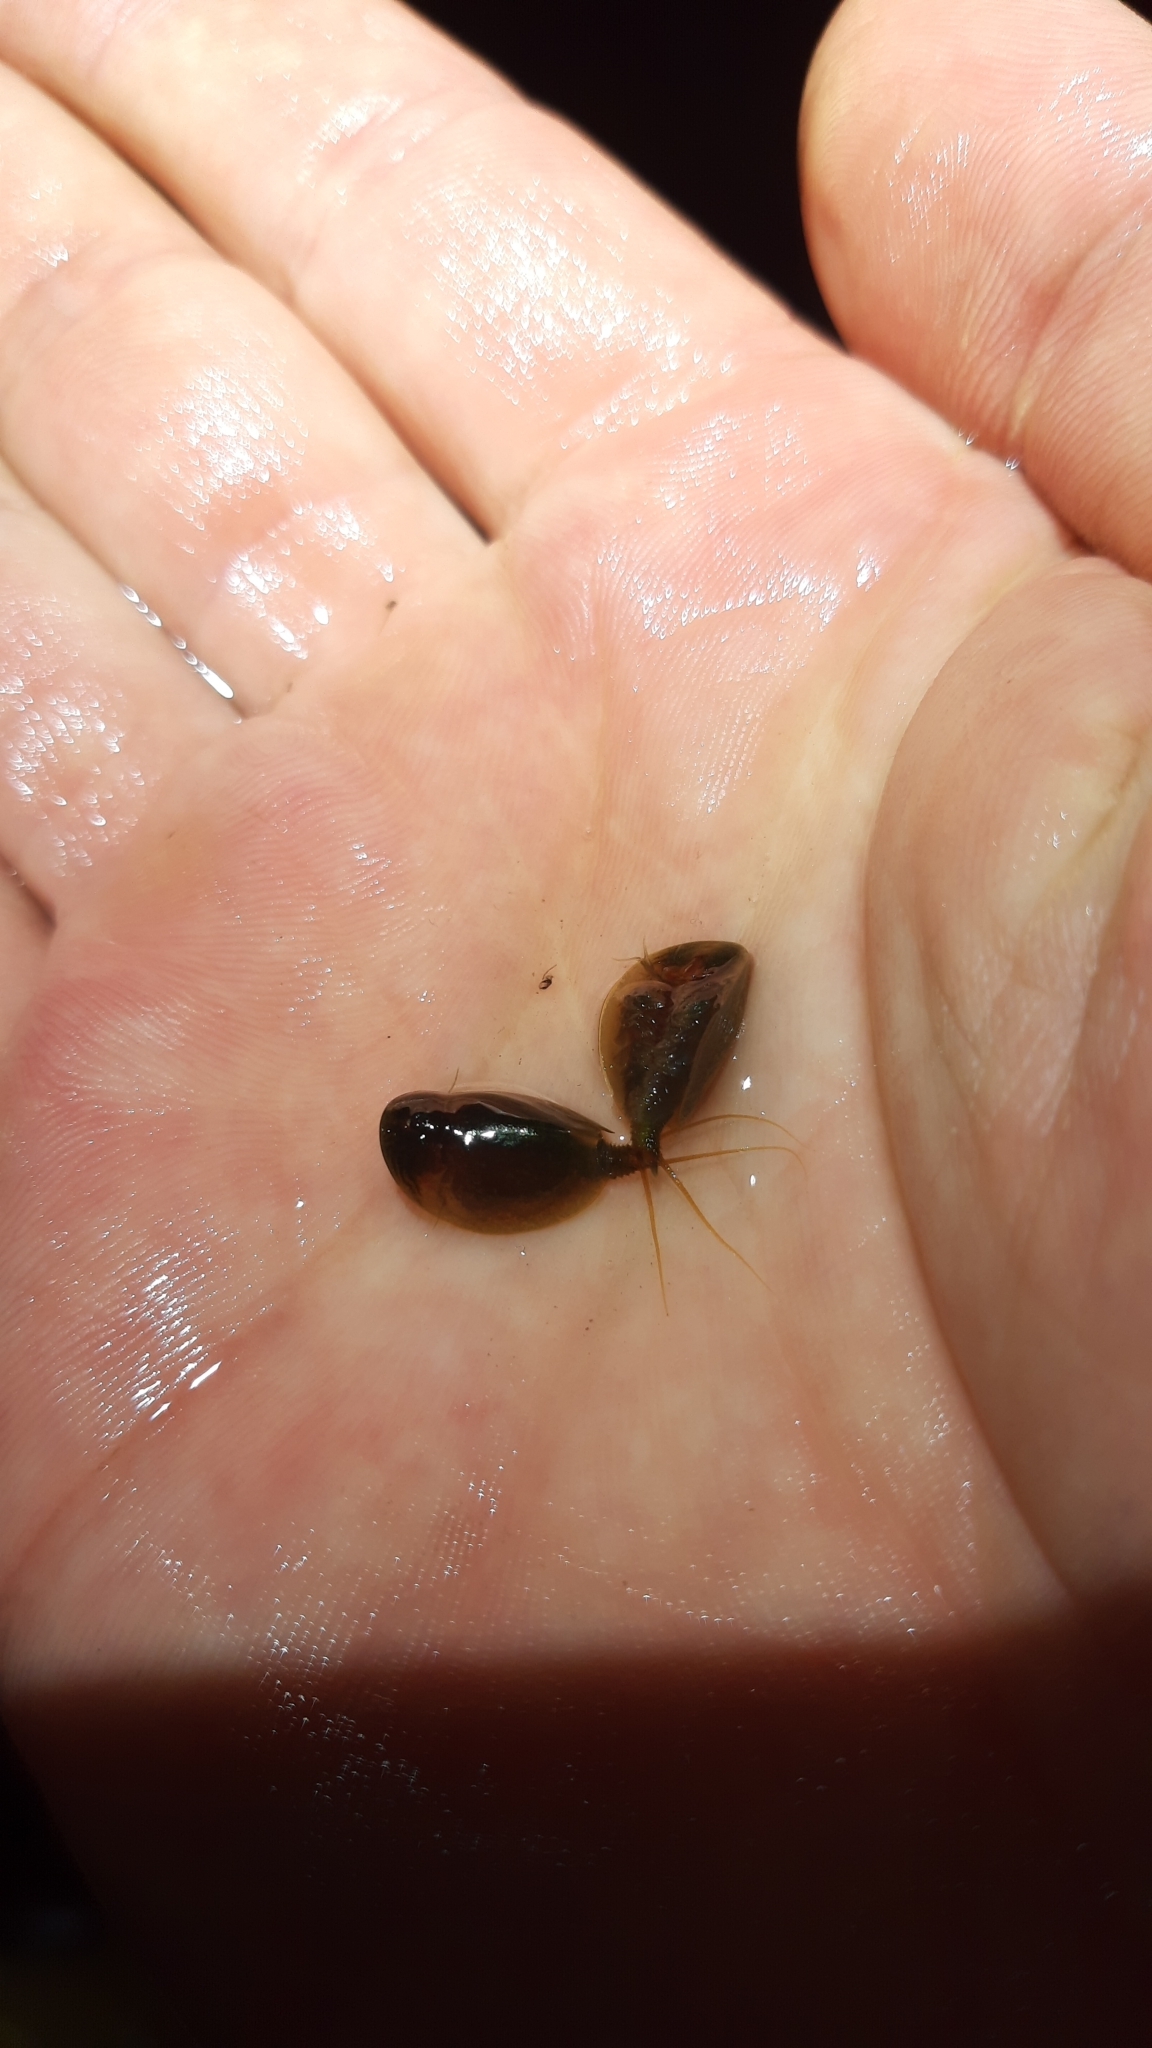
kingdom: Animalia
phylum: Arthropoda
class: Branchiopoda
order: Notostraca
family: Triopsidae
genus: Lepidurus
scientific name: Lepidurus apus
